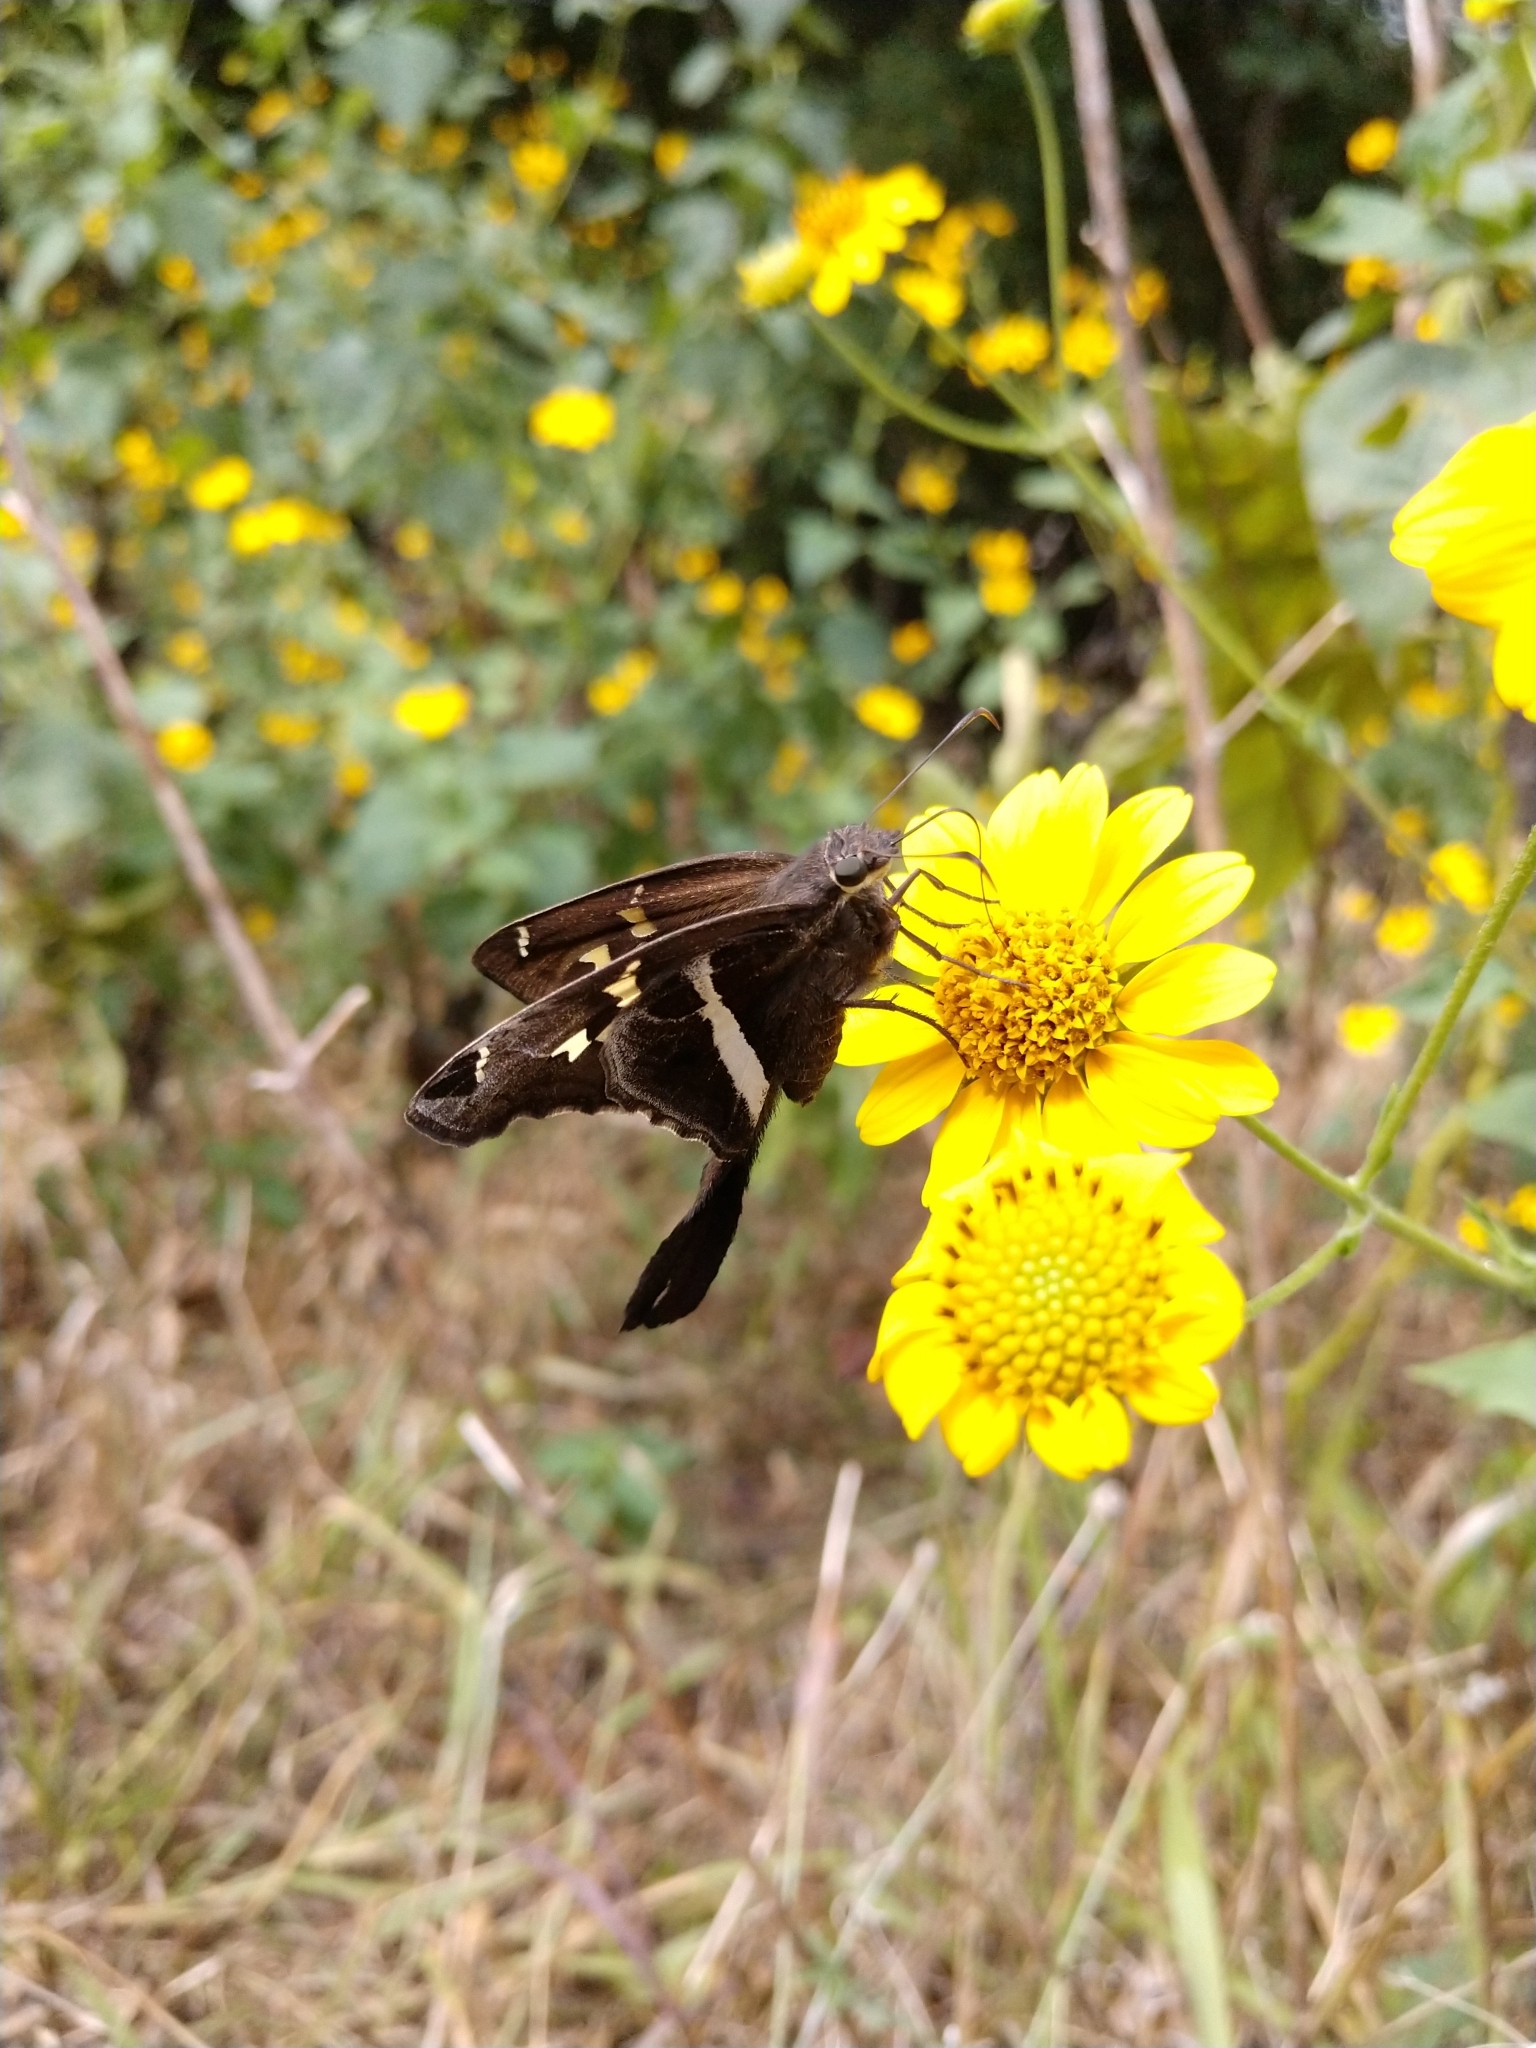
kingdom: Animalia
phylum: Arthropoda
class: Insecta
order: Lepidoptera
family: Hesperiidae
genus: Chioides
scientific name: Chioides catillus
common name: Silverbanded skipper
